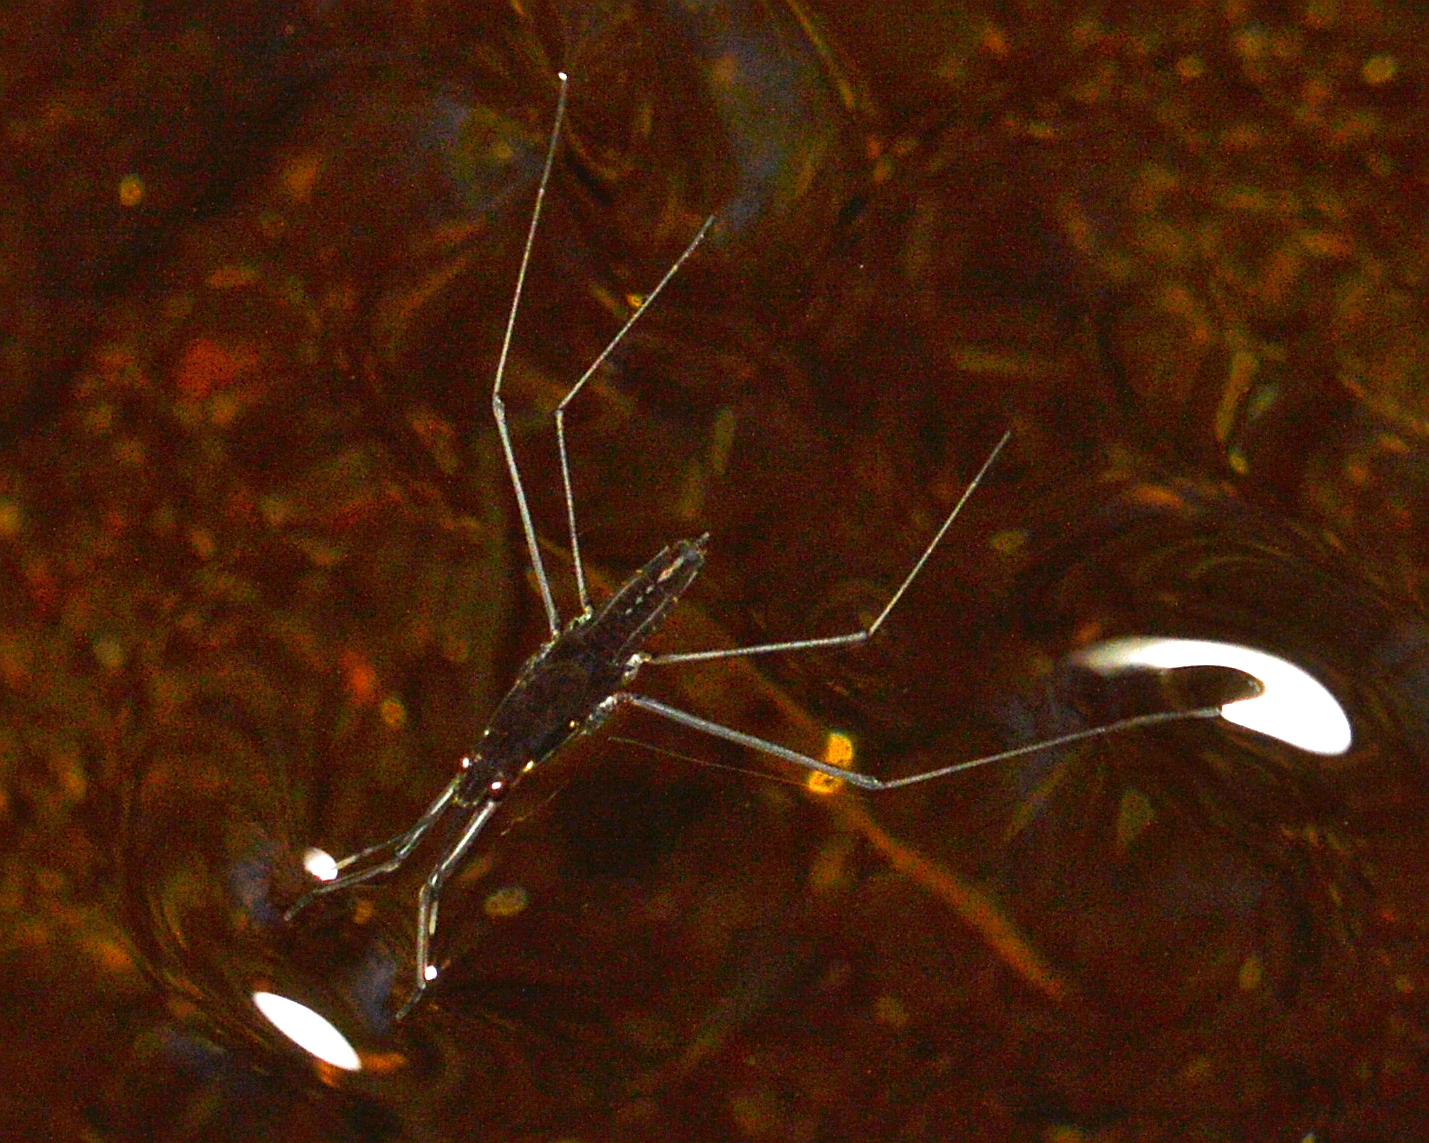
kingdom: Animalia
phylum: Arthropoda
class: Insecta
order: Hemiptera
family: Gerridae
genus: Aquarius
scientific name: Aquarius remigis
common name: Common water strider
